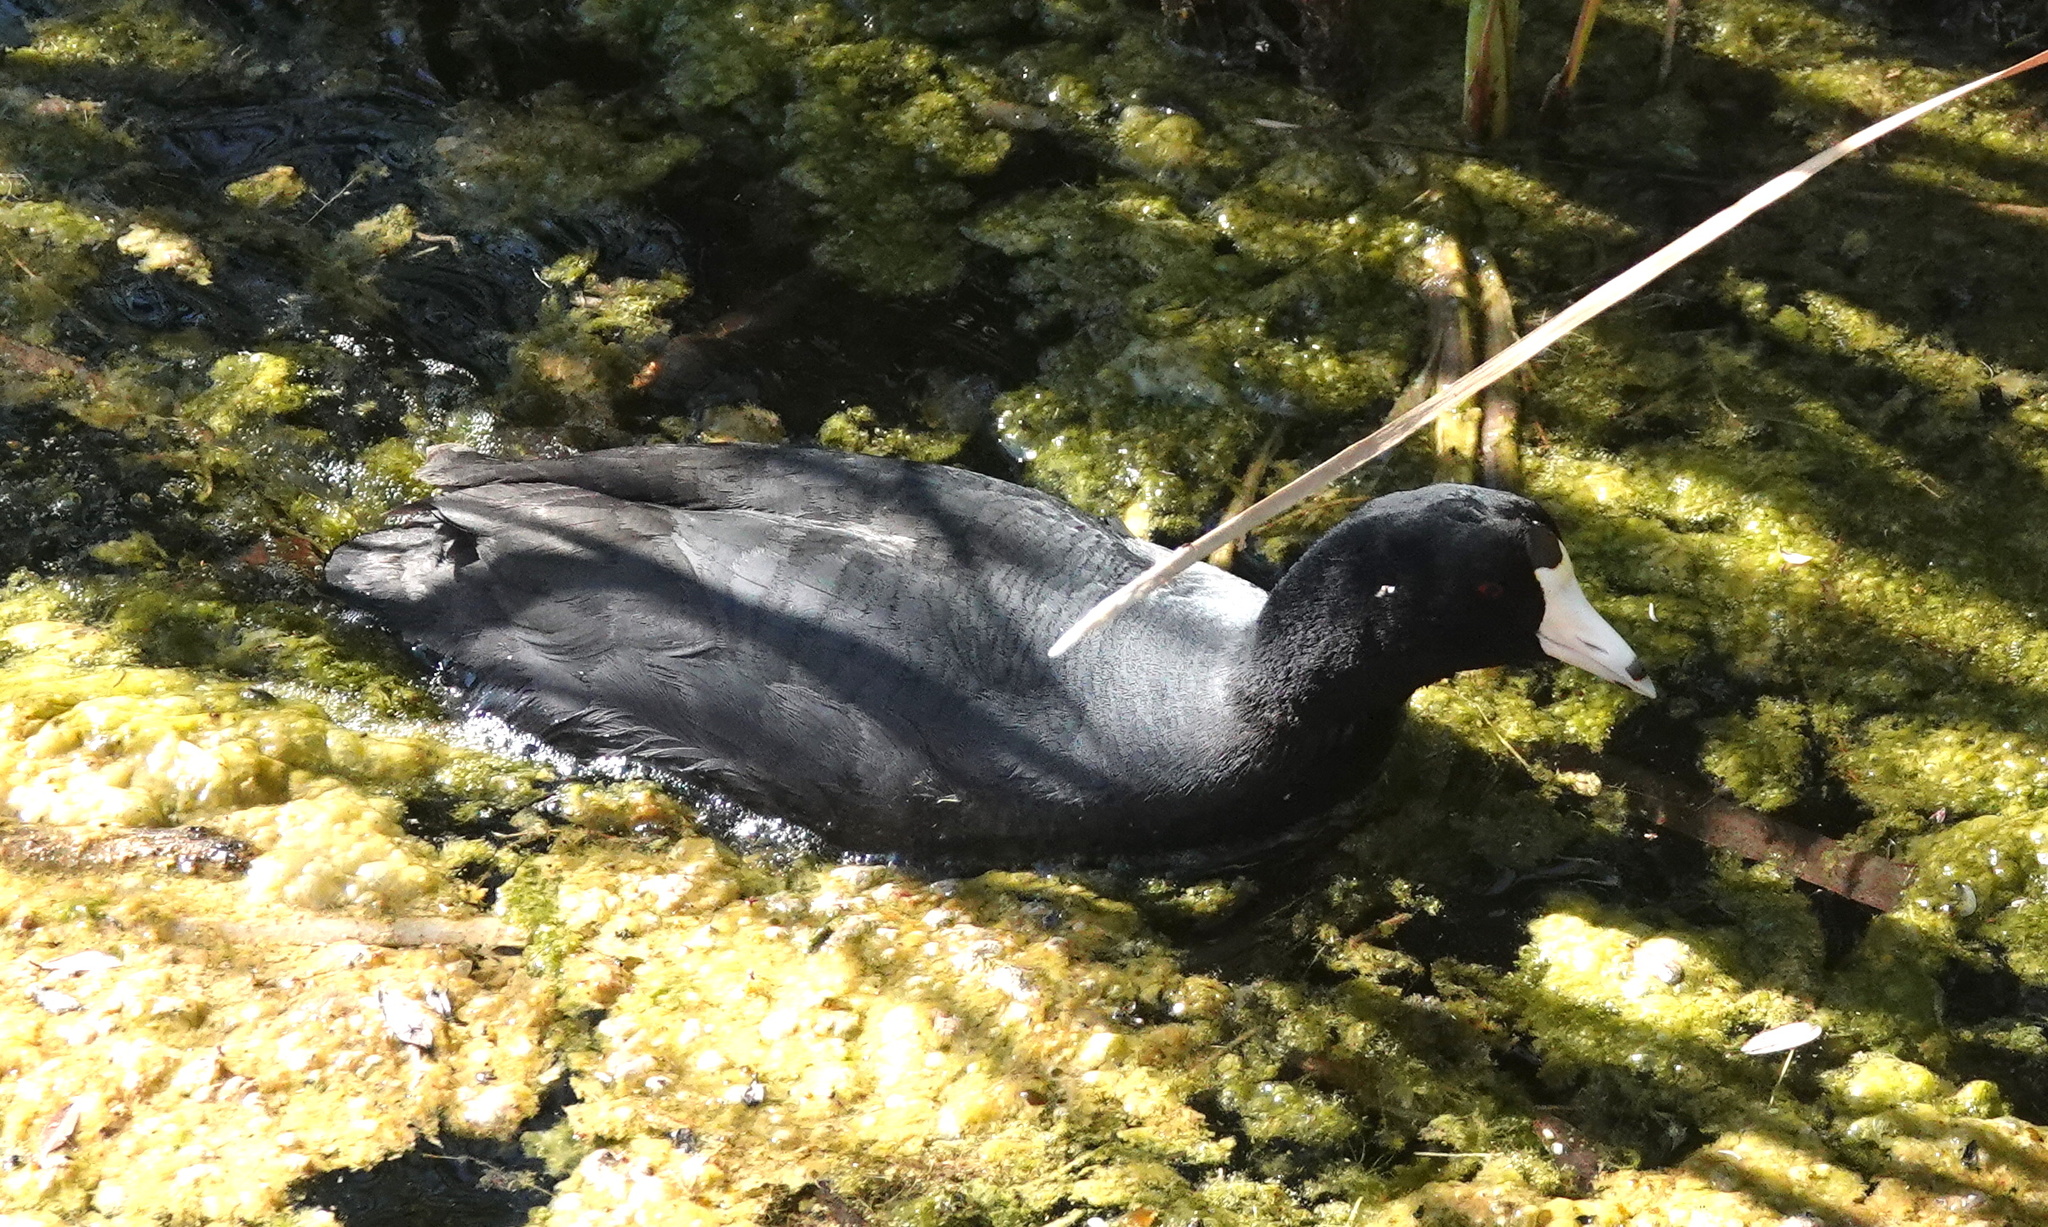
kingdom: Animalia
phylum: Chordata
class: Aves
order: Gruiformes
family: Rallidae
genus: Fulica
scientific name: Fulica americana
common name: American coot
